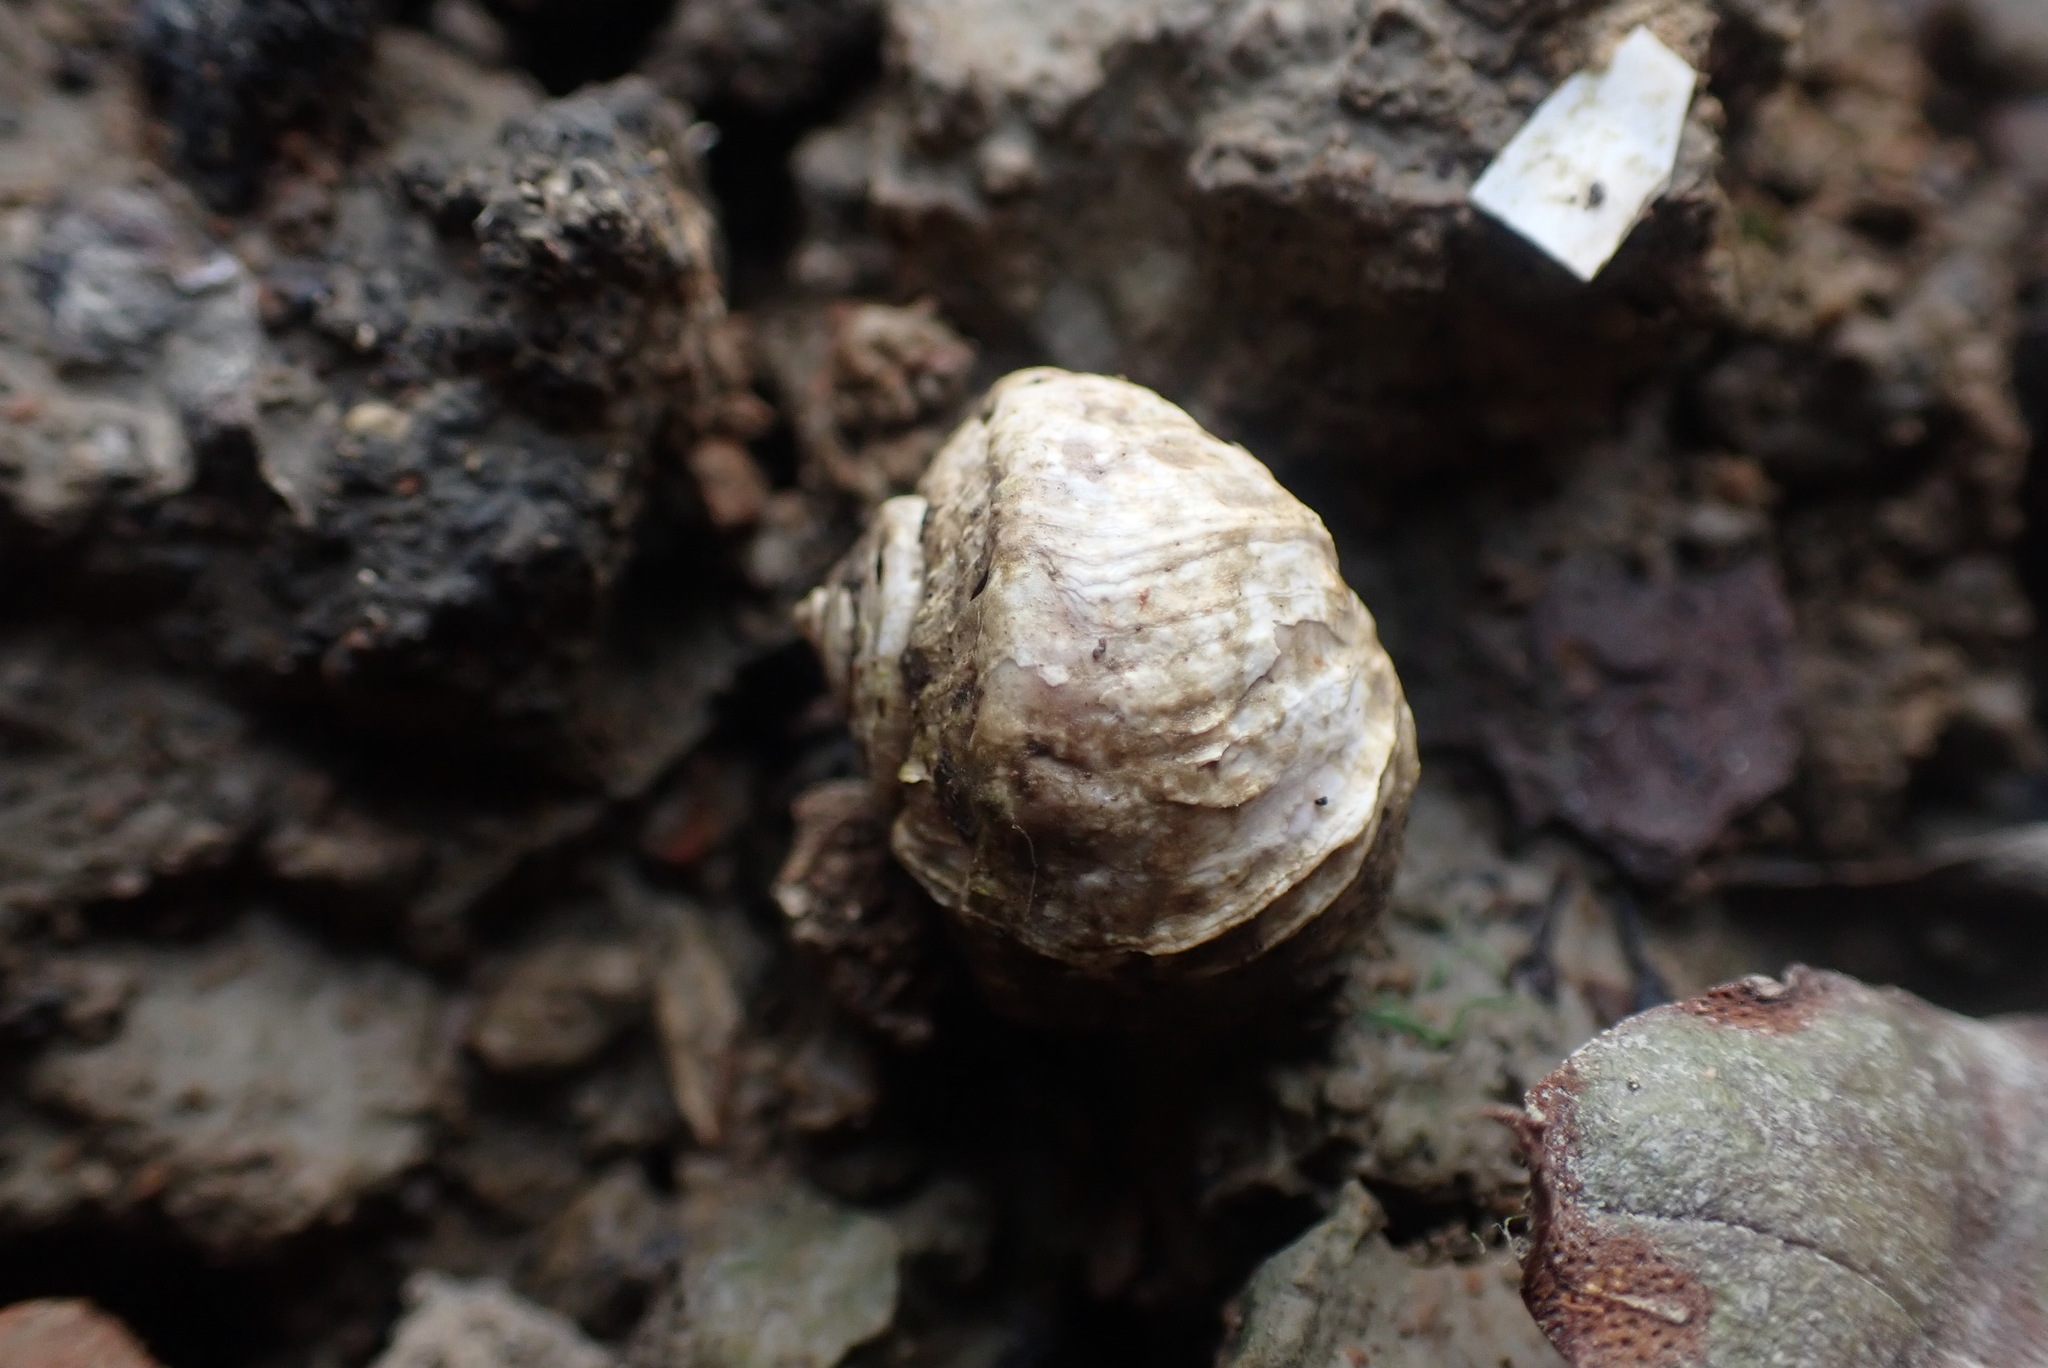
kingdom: Animalia
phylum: Mollusca
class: Gastropoda
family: Amphibolidae
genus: Amphibola
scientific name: Amphibola crenata
